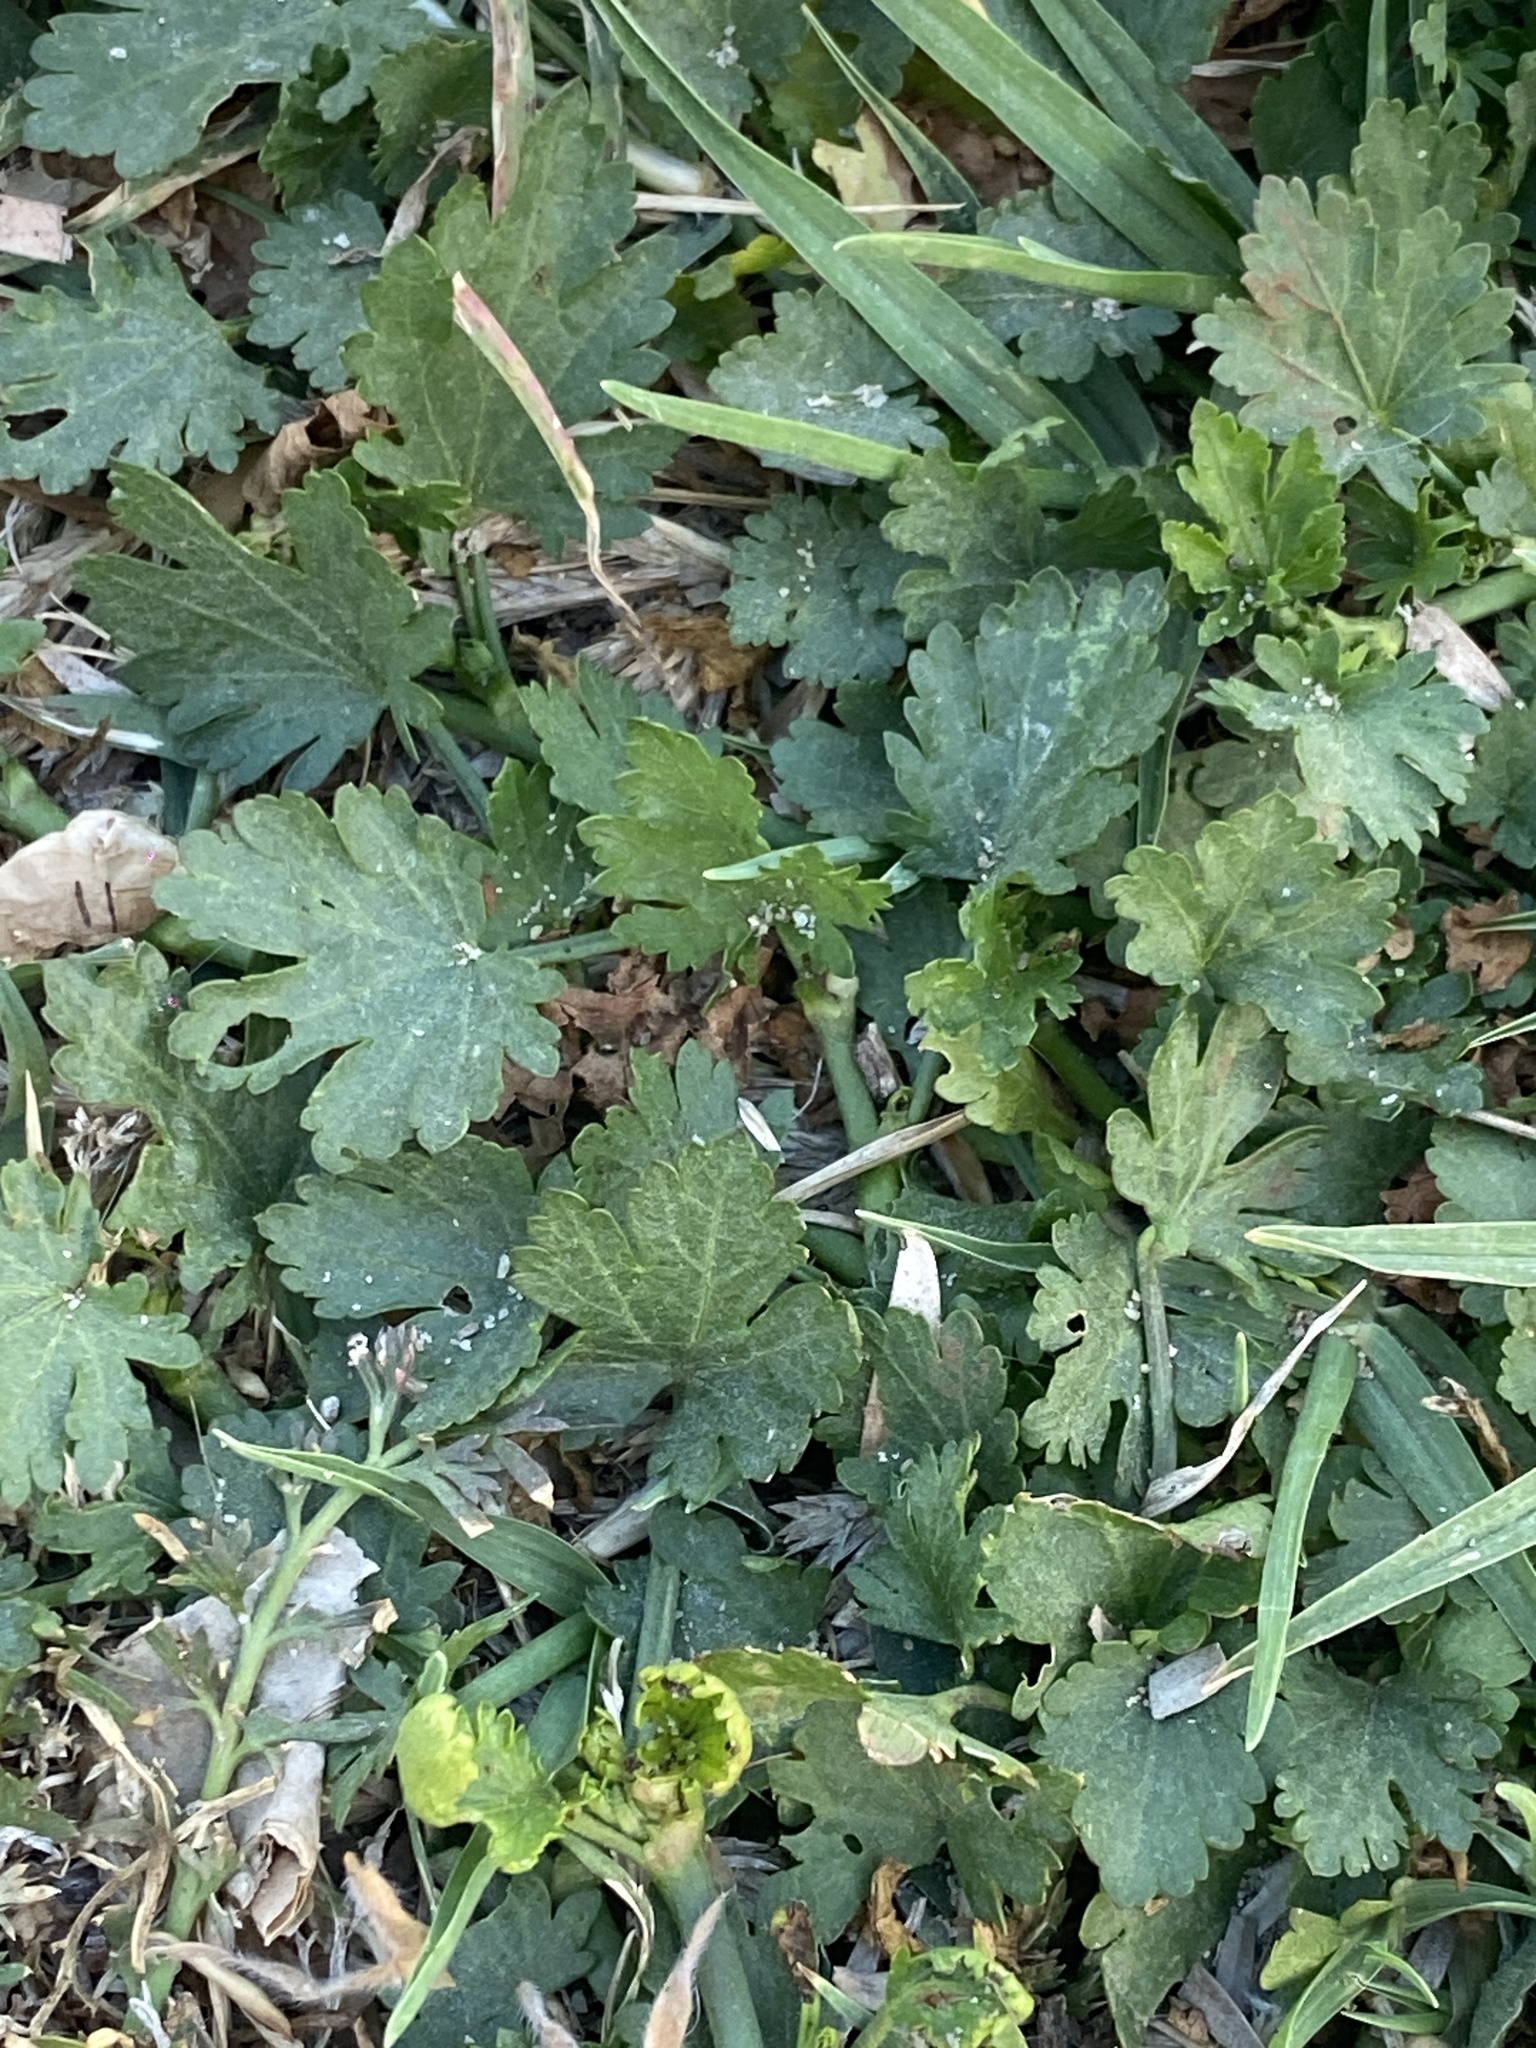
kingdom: Plantae
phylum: Tracheophyta
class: Magnoliopsida
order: Malvales
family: Malvaceae
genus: Modiola
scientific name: Modiola caroliniana
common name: Carolina bristlemallow
